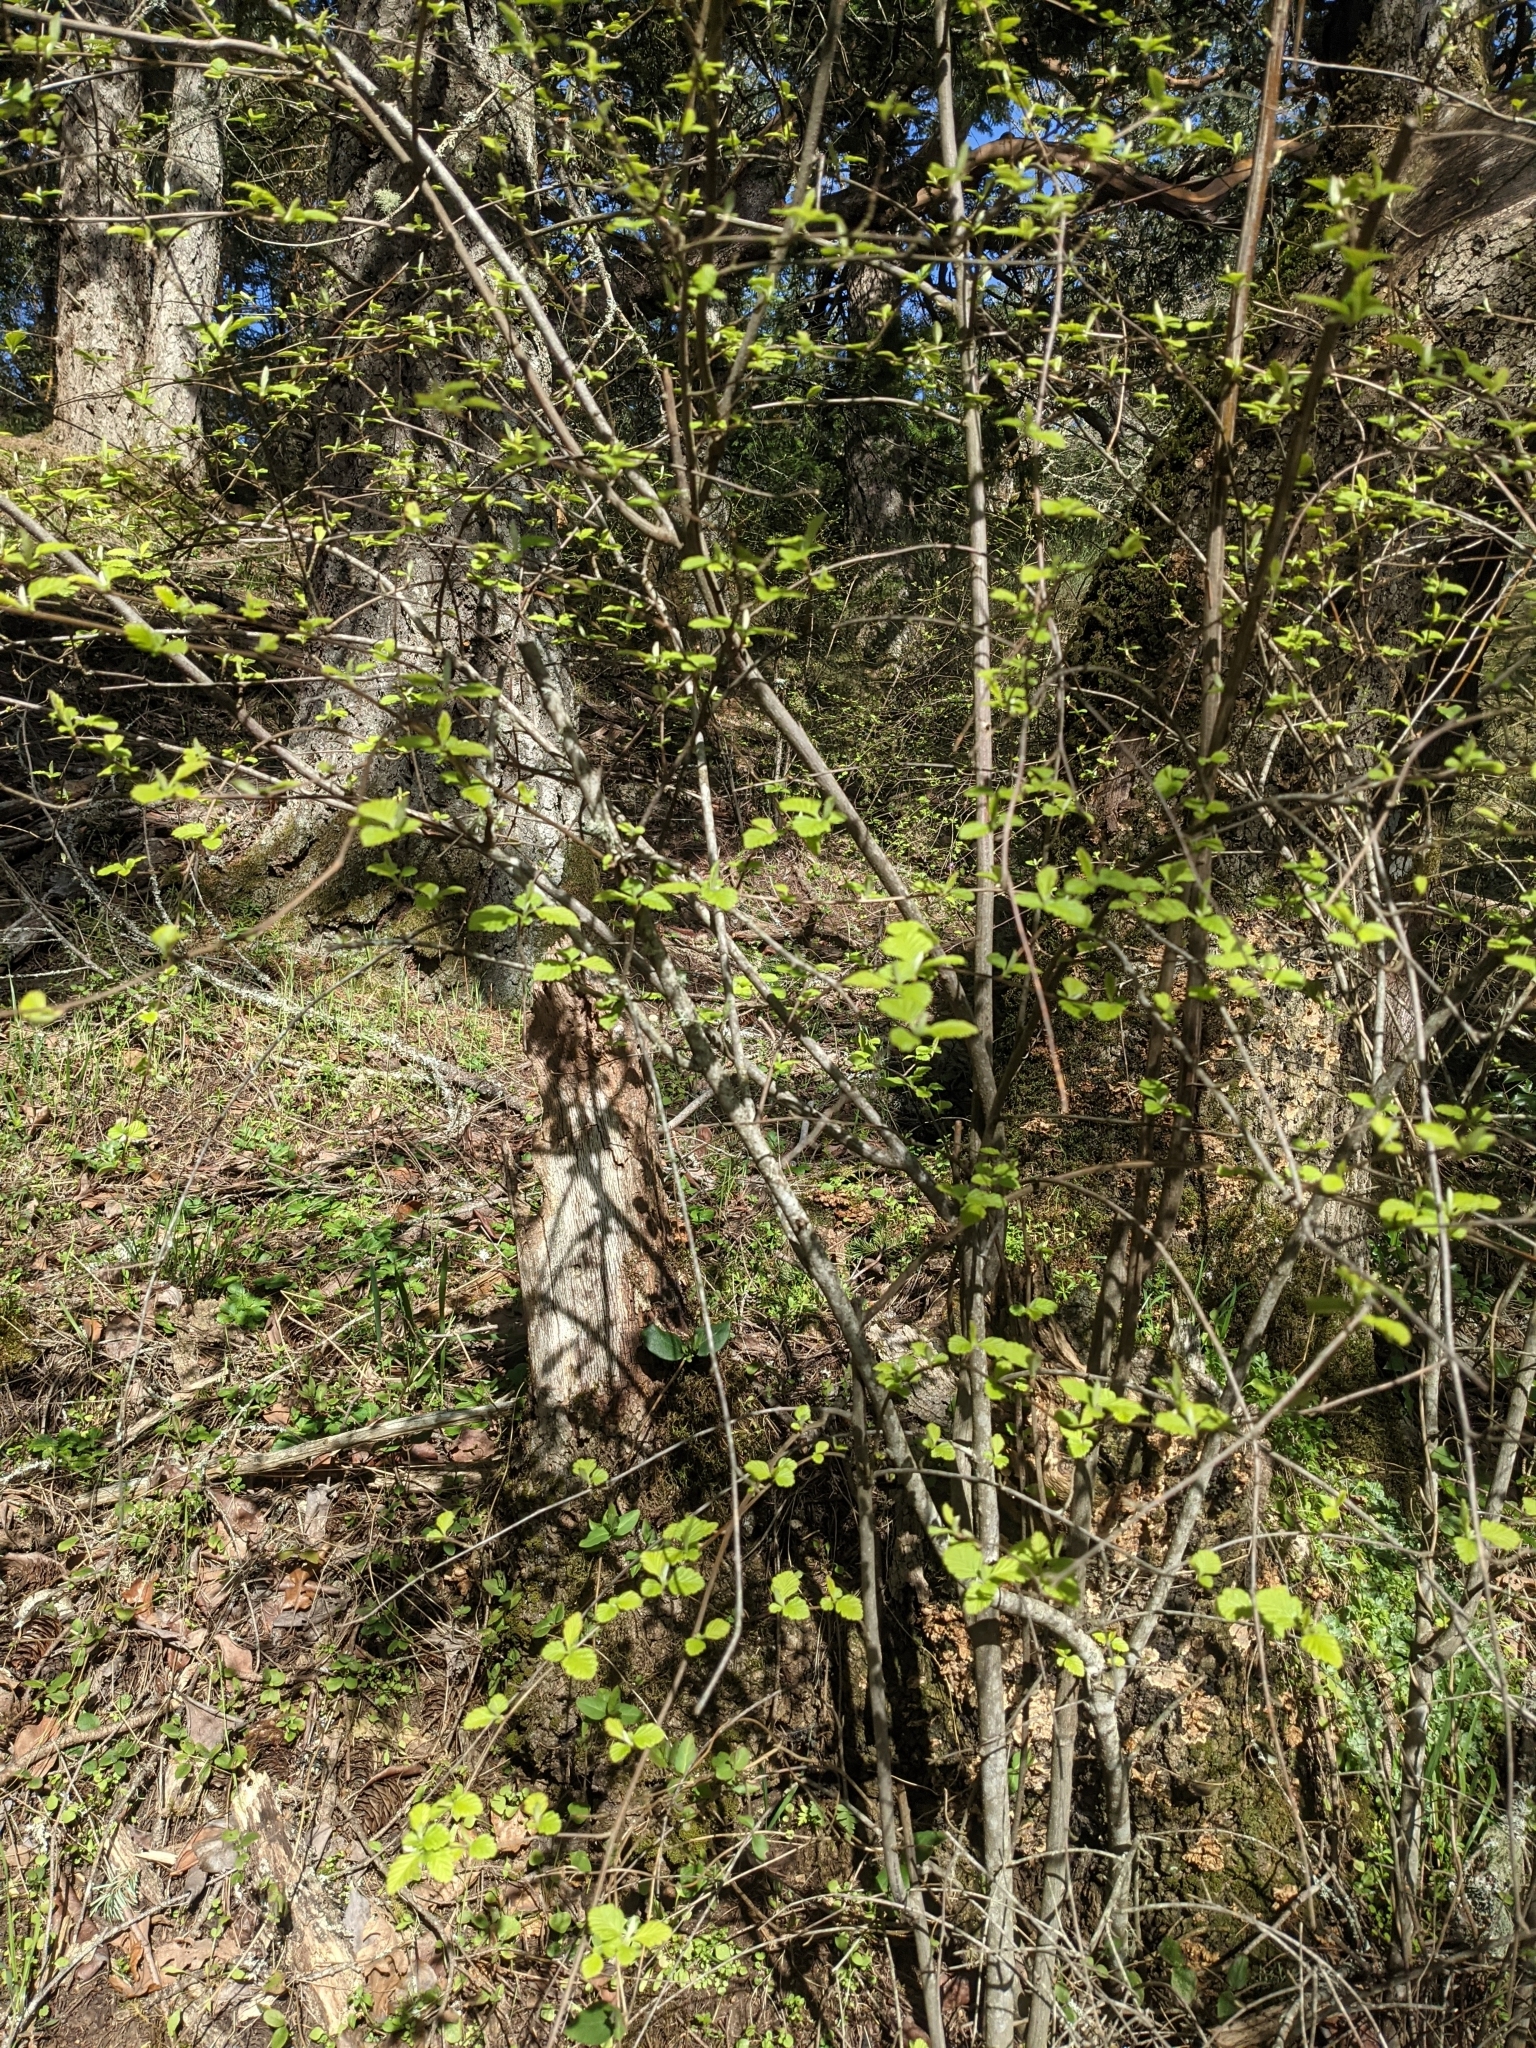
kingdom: Plantae
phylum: Tracheophyta
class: Magnoliopsida
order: Rosales
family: Rosaceae
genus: Holodiscus
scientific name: Holodiscus discolor
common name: Oceanspray
